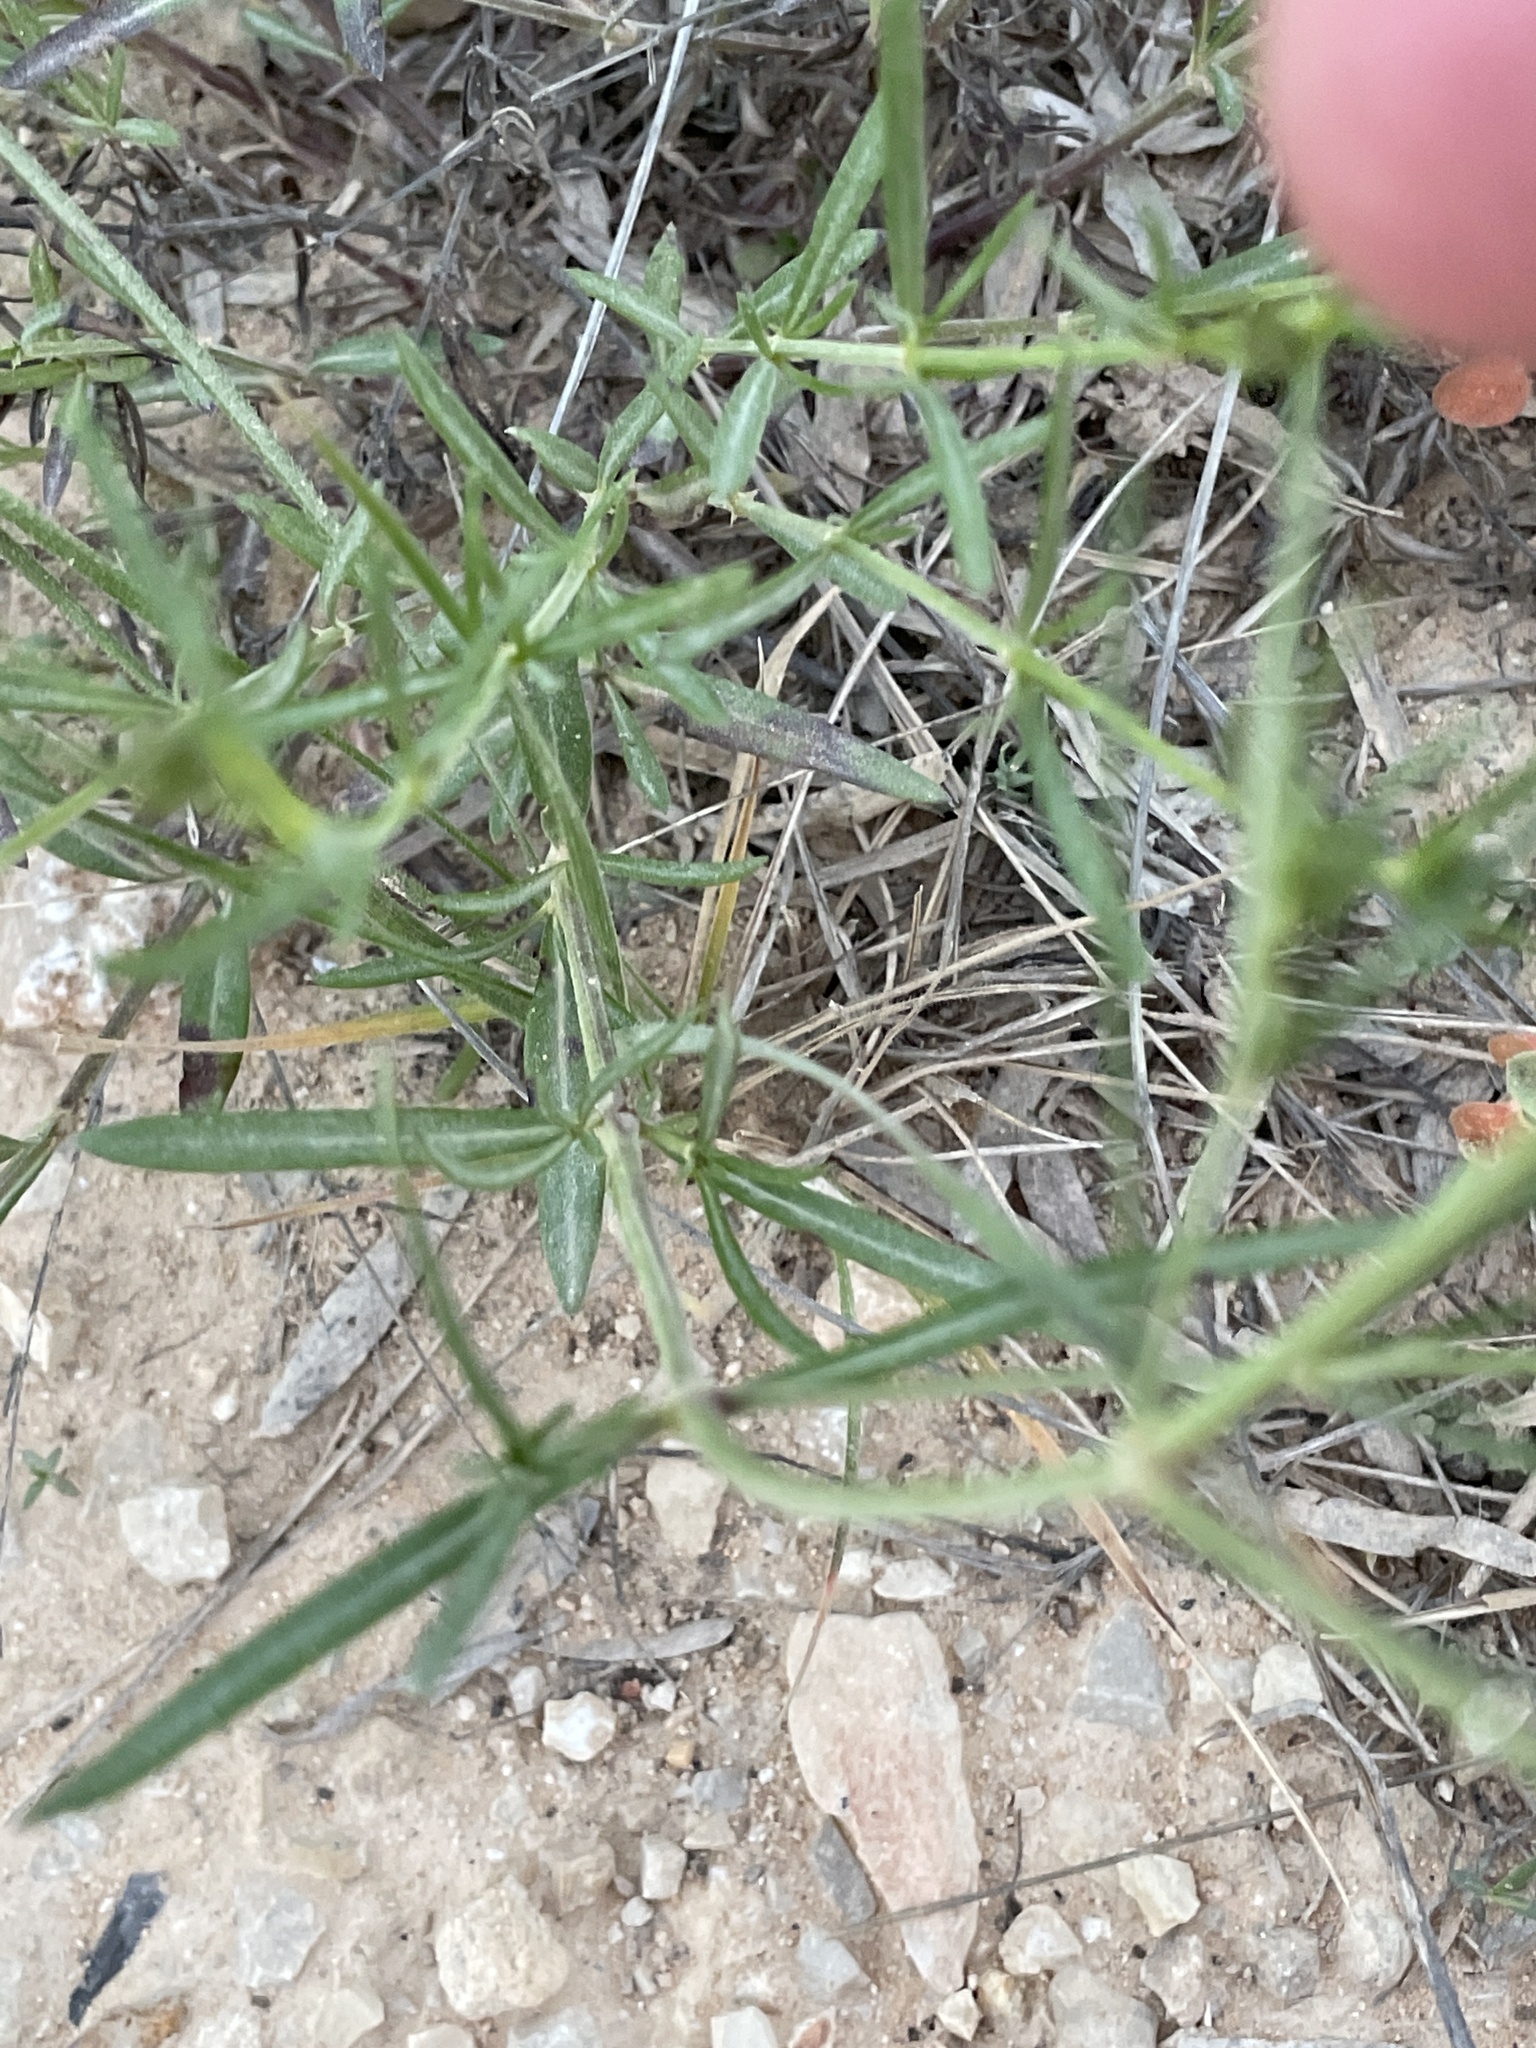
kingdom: Plantae
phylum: Tracheophyta
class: Magnoliopsida
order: Gentianales
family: Rubiaceae
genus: Stenaria
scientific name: Stenaria nigricans
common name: Diamondflowers
